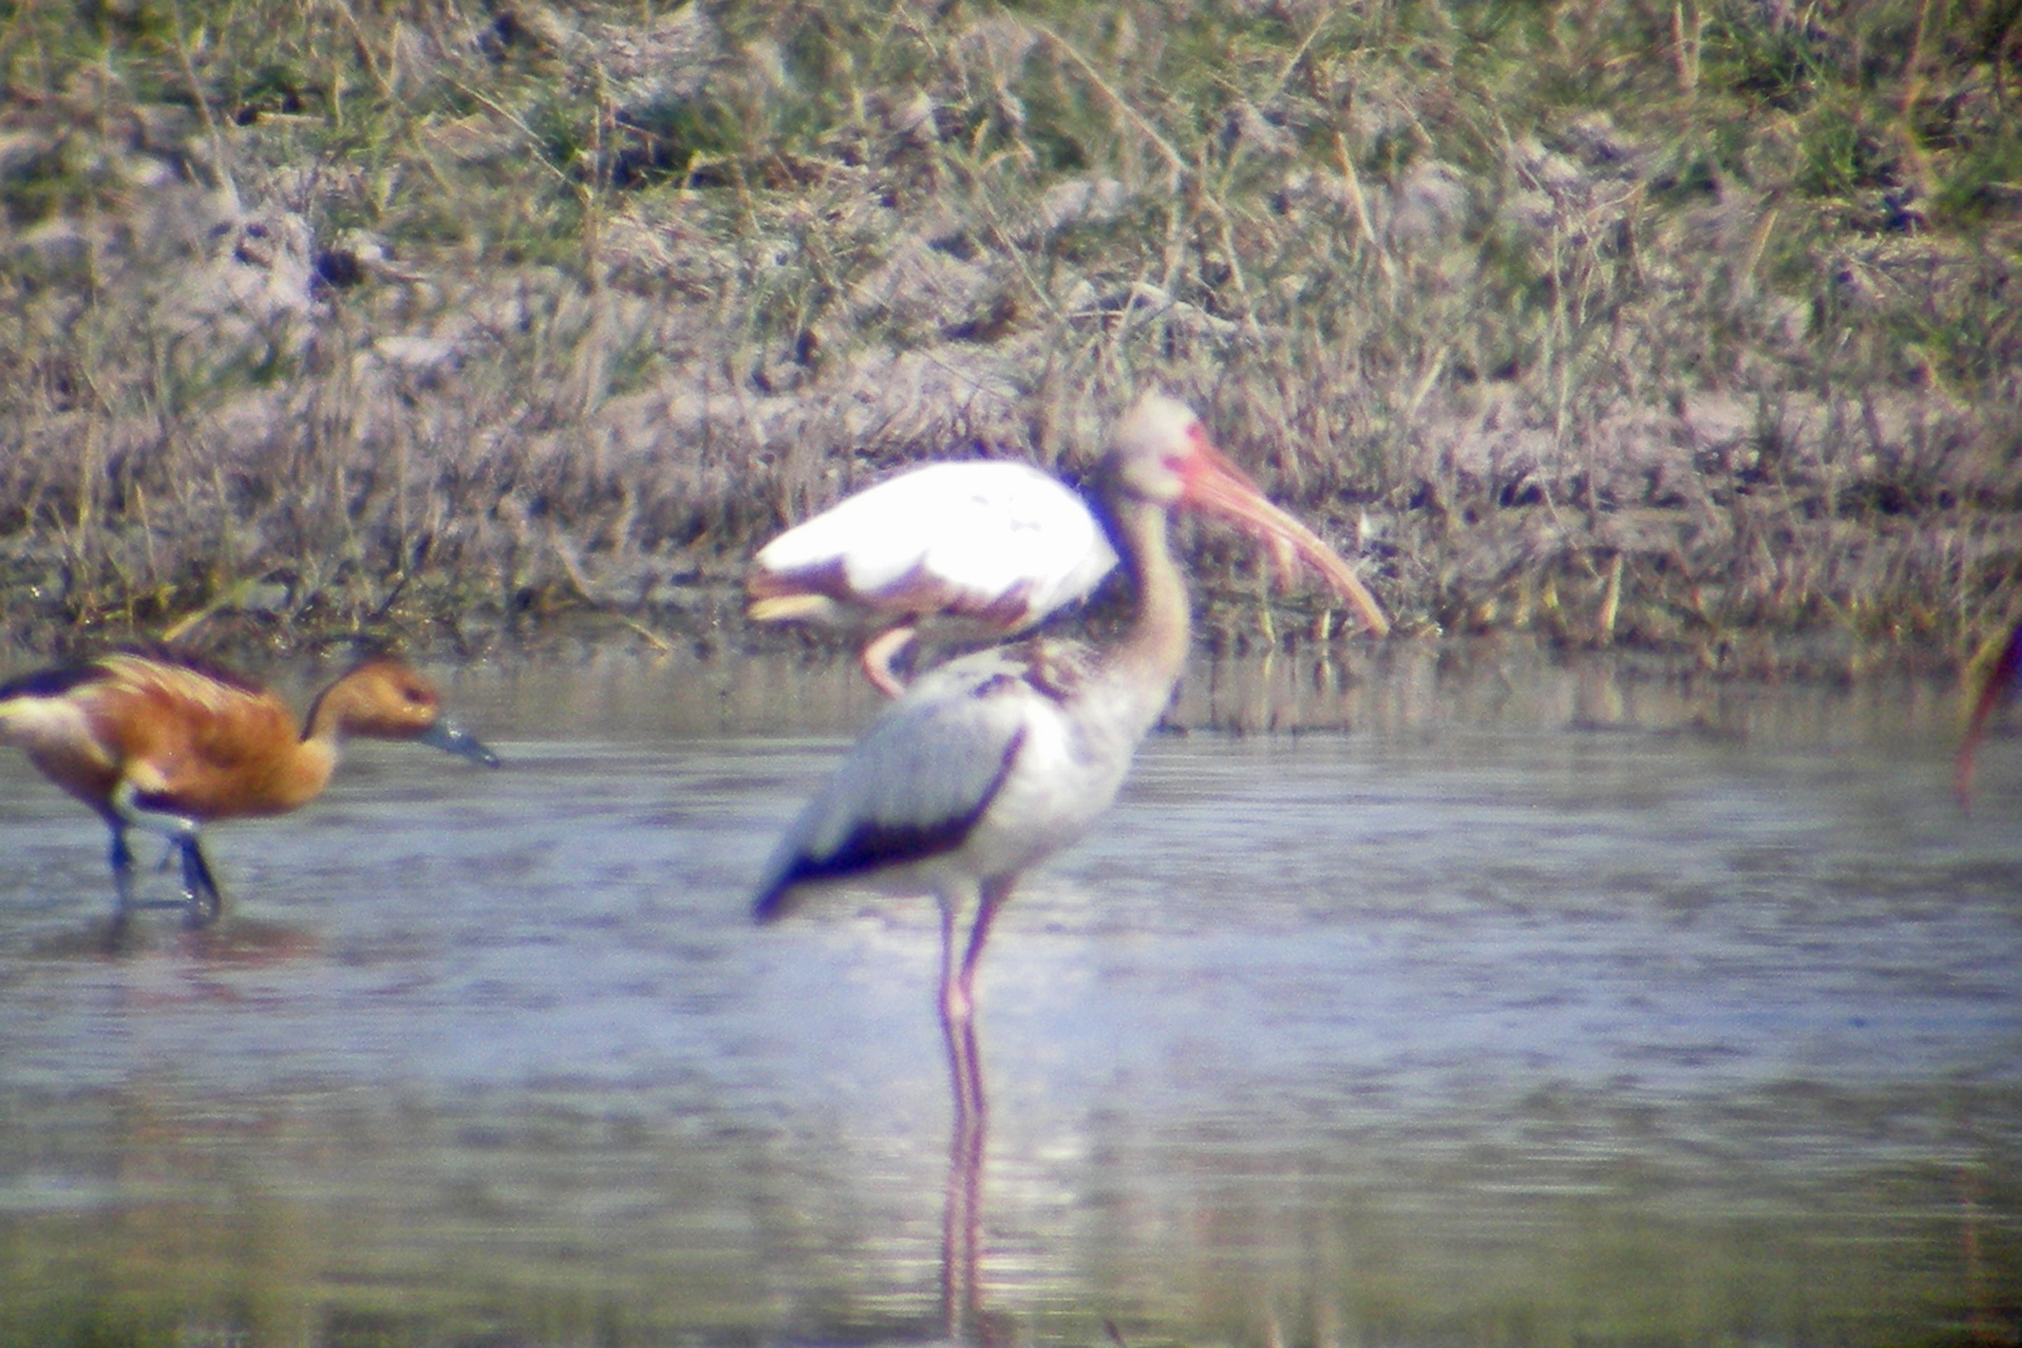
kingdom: Animalia
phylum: Chordata
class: Aves
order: Pelecaniformes
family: Threskiornithidae
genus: Eudocimus
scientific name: Eudocimus albus
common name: White ibis
